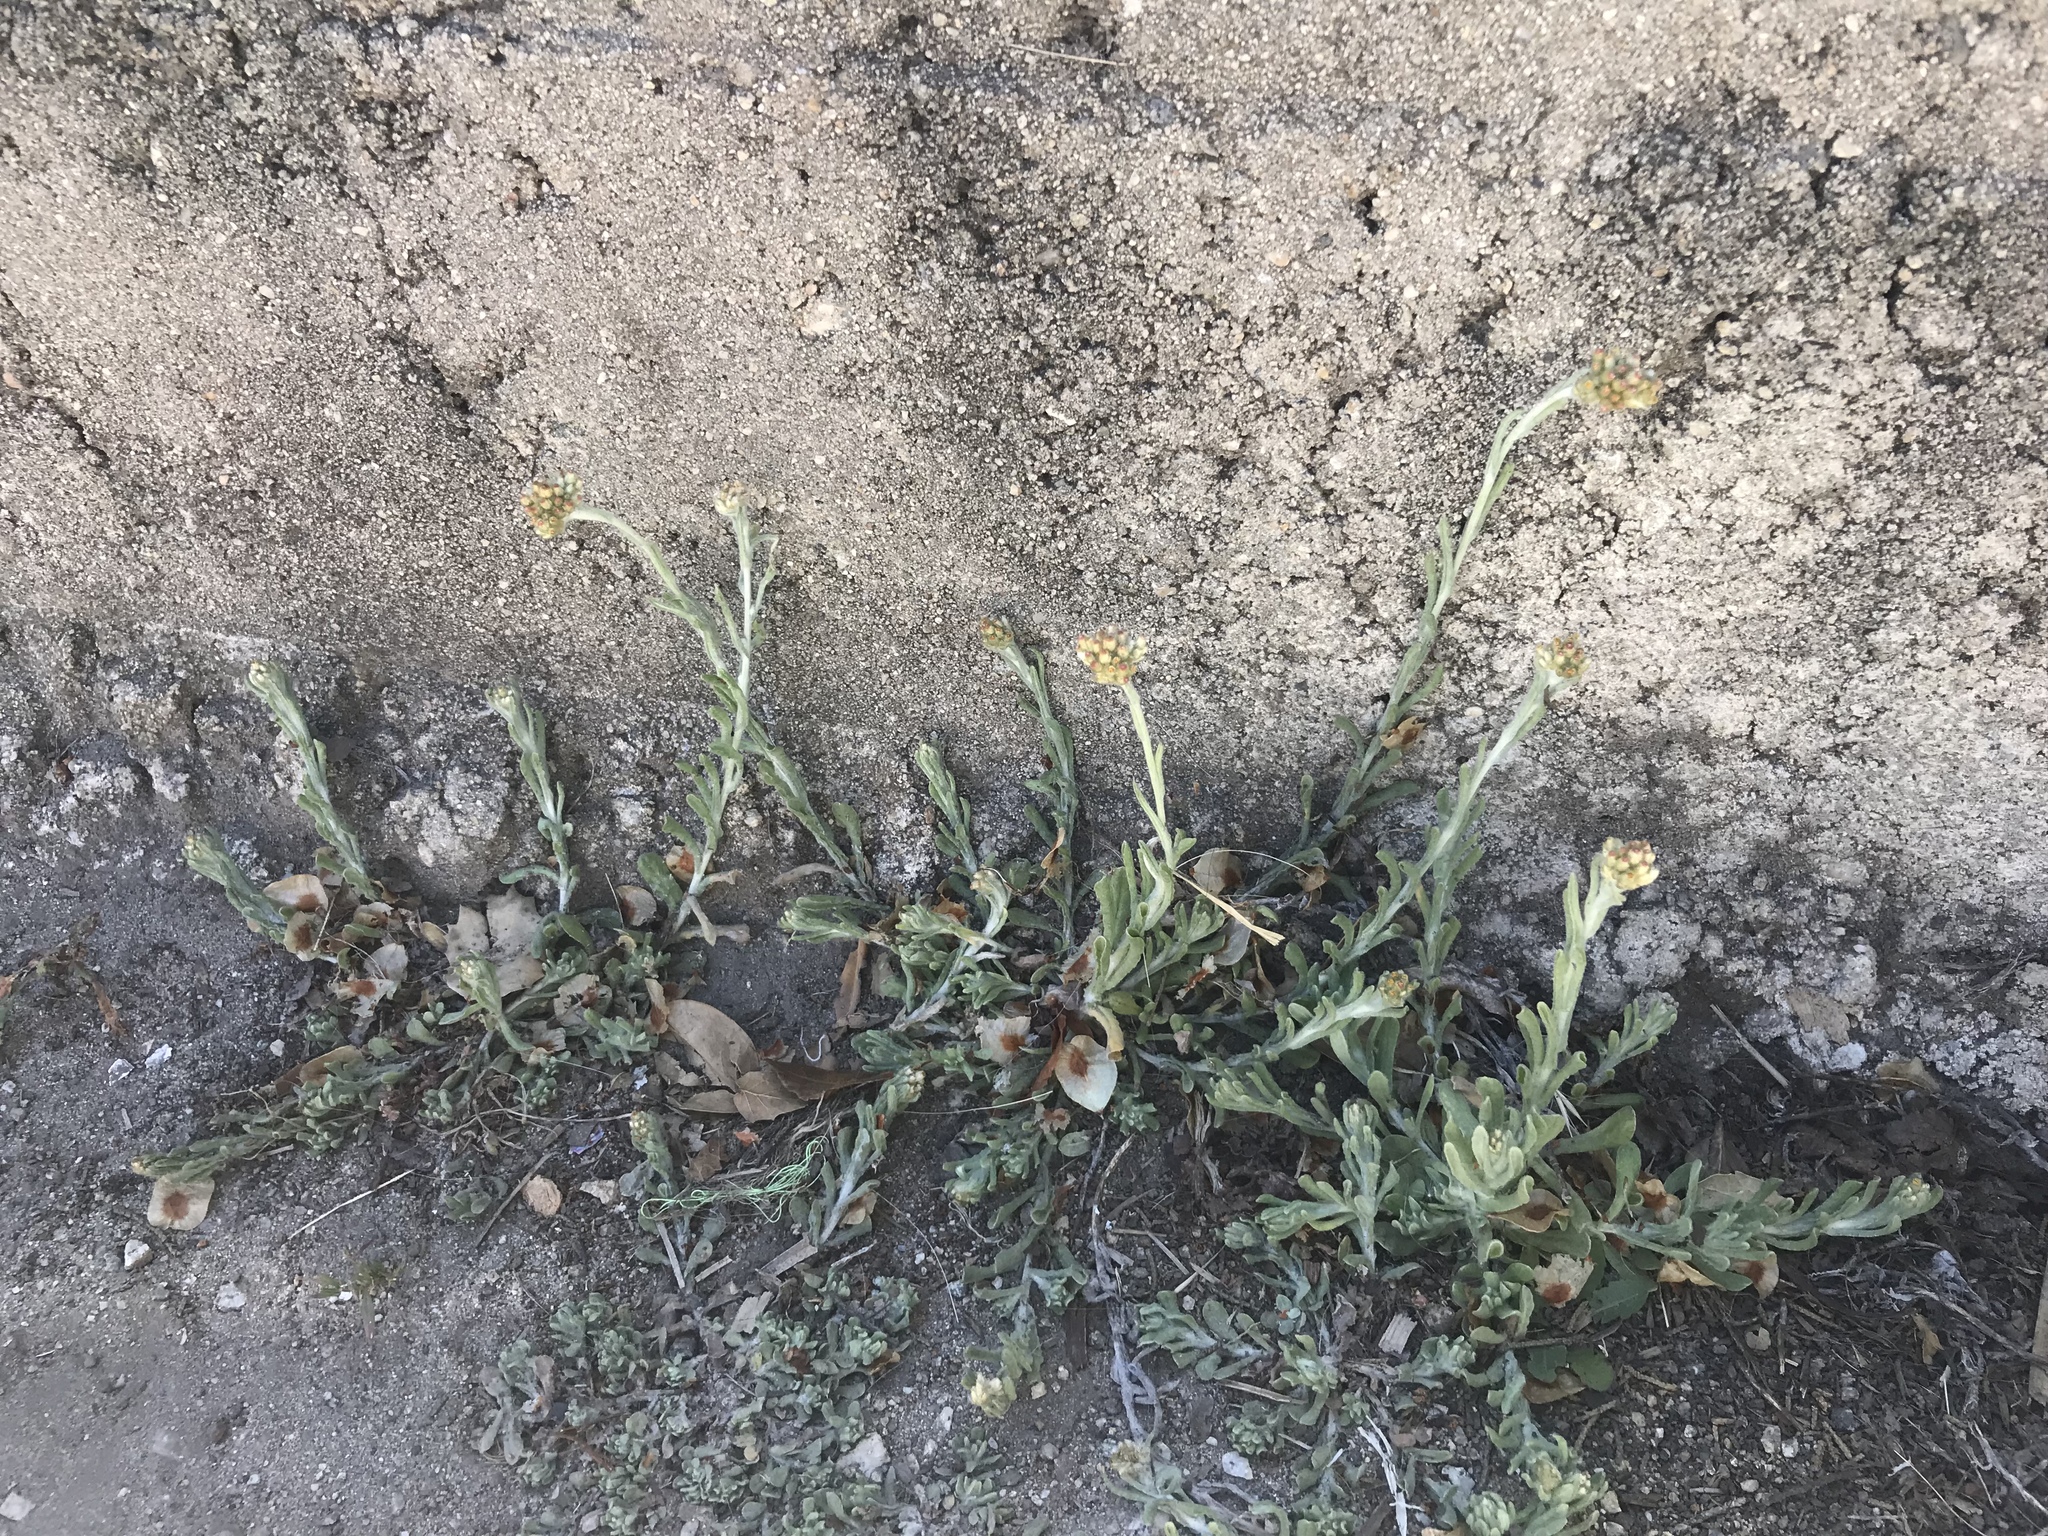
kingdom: Plantae
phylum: Tracheophyta
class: Magnoliopsida
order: Asterales
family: Asteraceae
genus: Helichrysum
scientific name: Helichrysum luteoalbum
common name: Daisy
